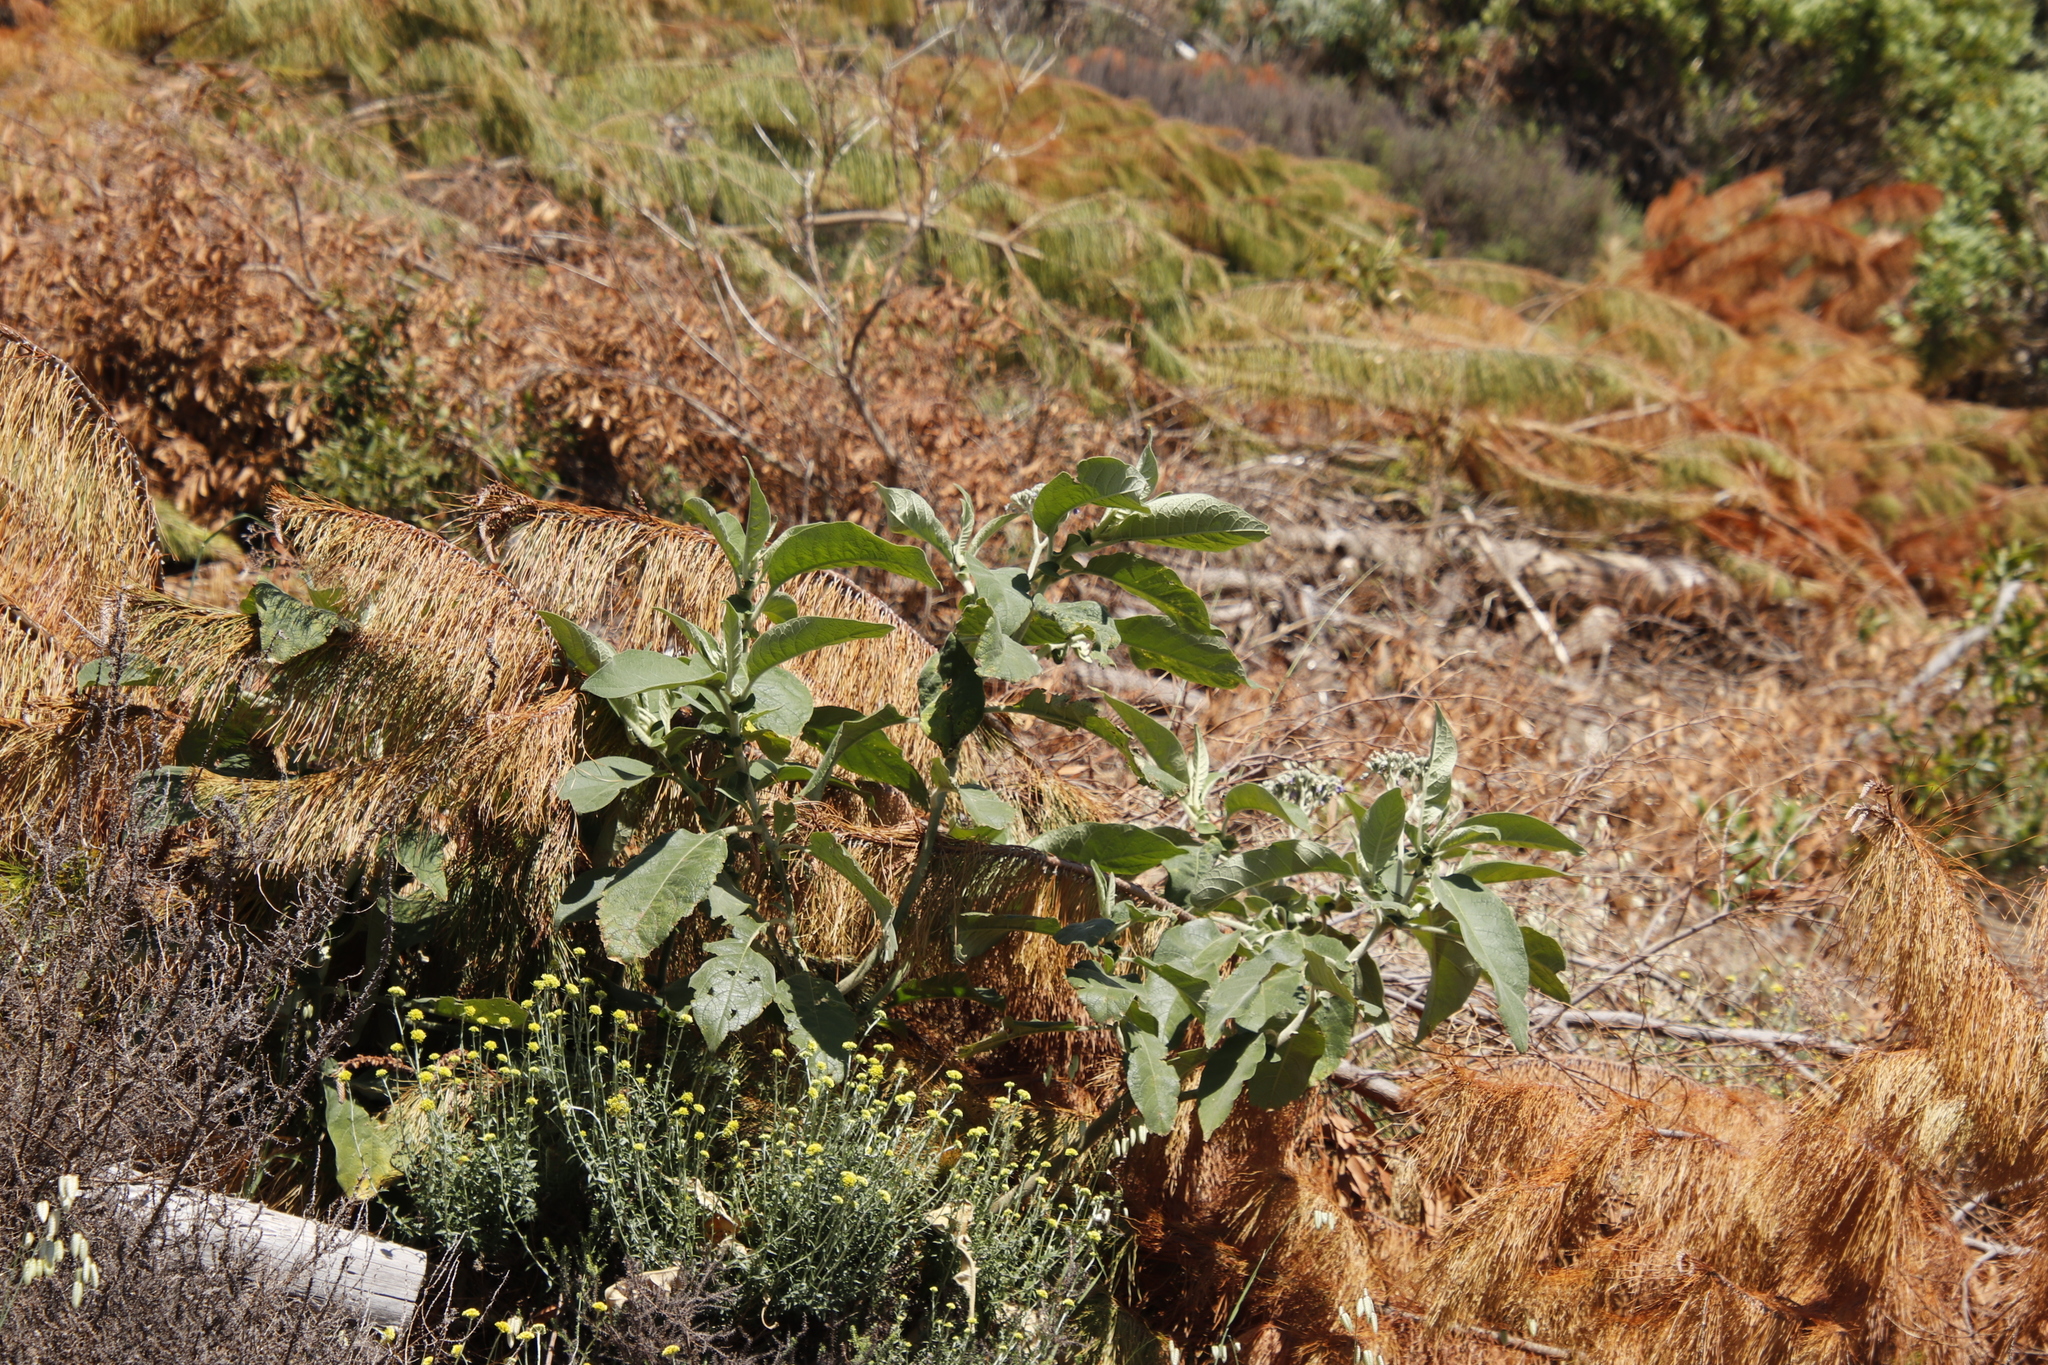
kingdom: Plantae
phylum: Tracheophyta
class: Magnoliopsida
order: Solanales
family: Solanaceae
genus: Solanum
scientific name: Solanum mauritianum
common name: Earleaf nightshade
